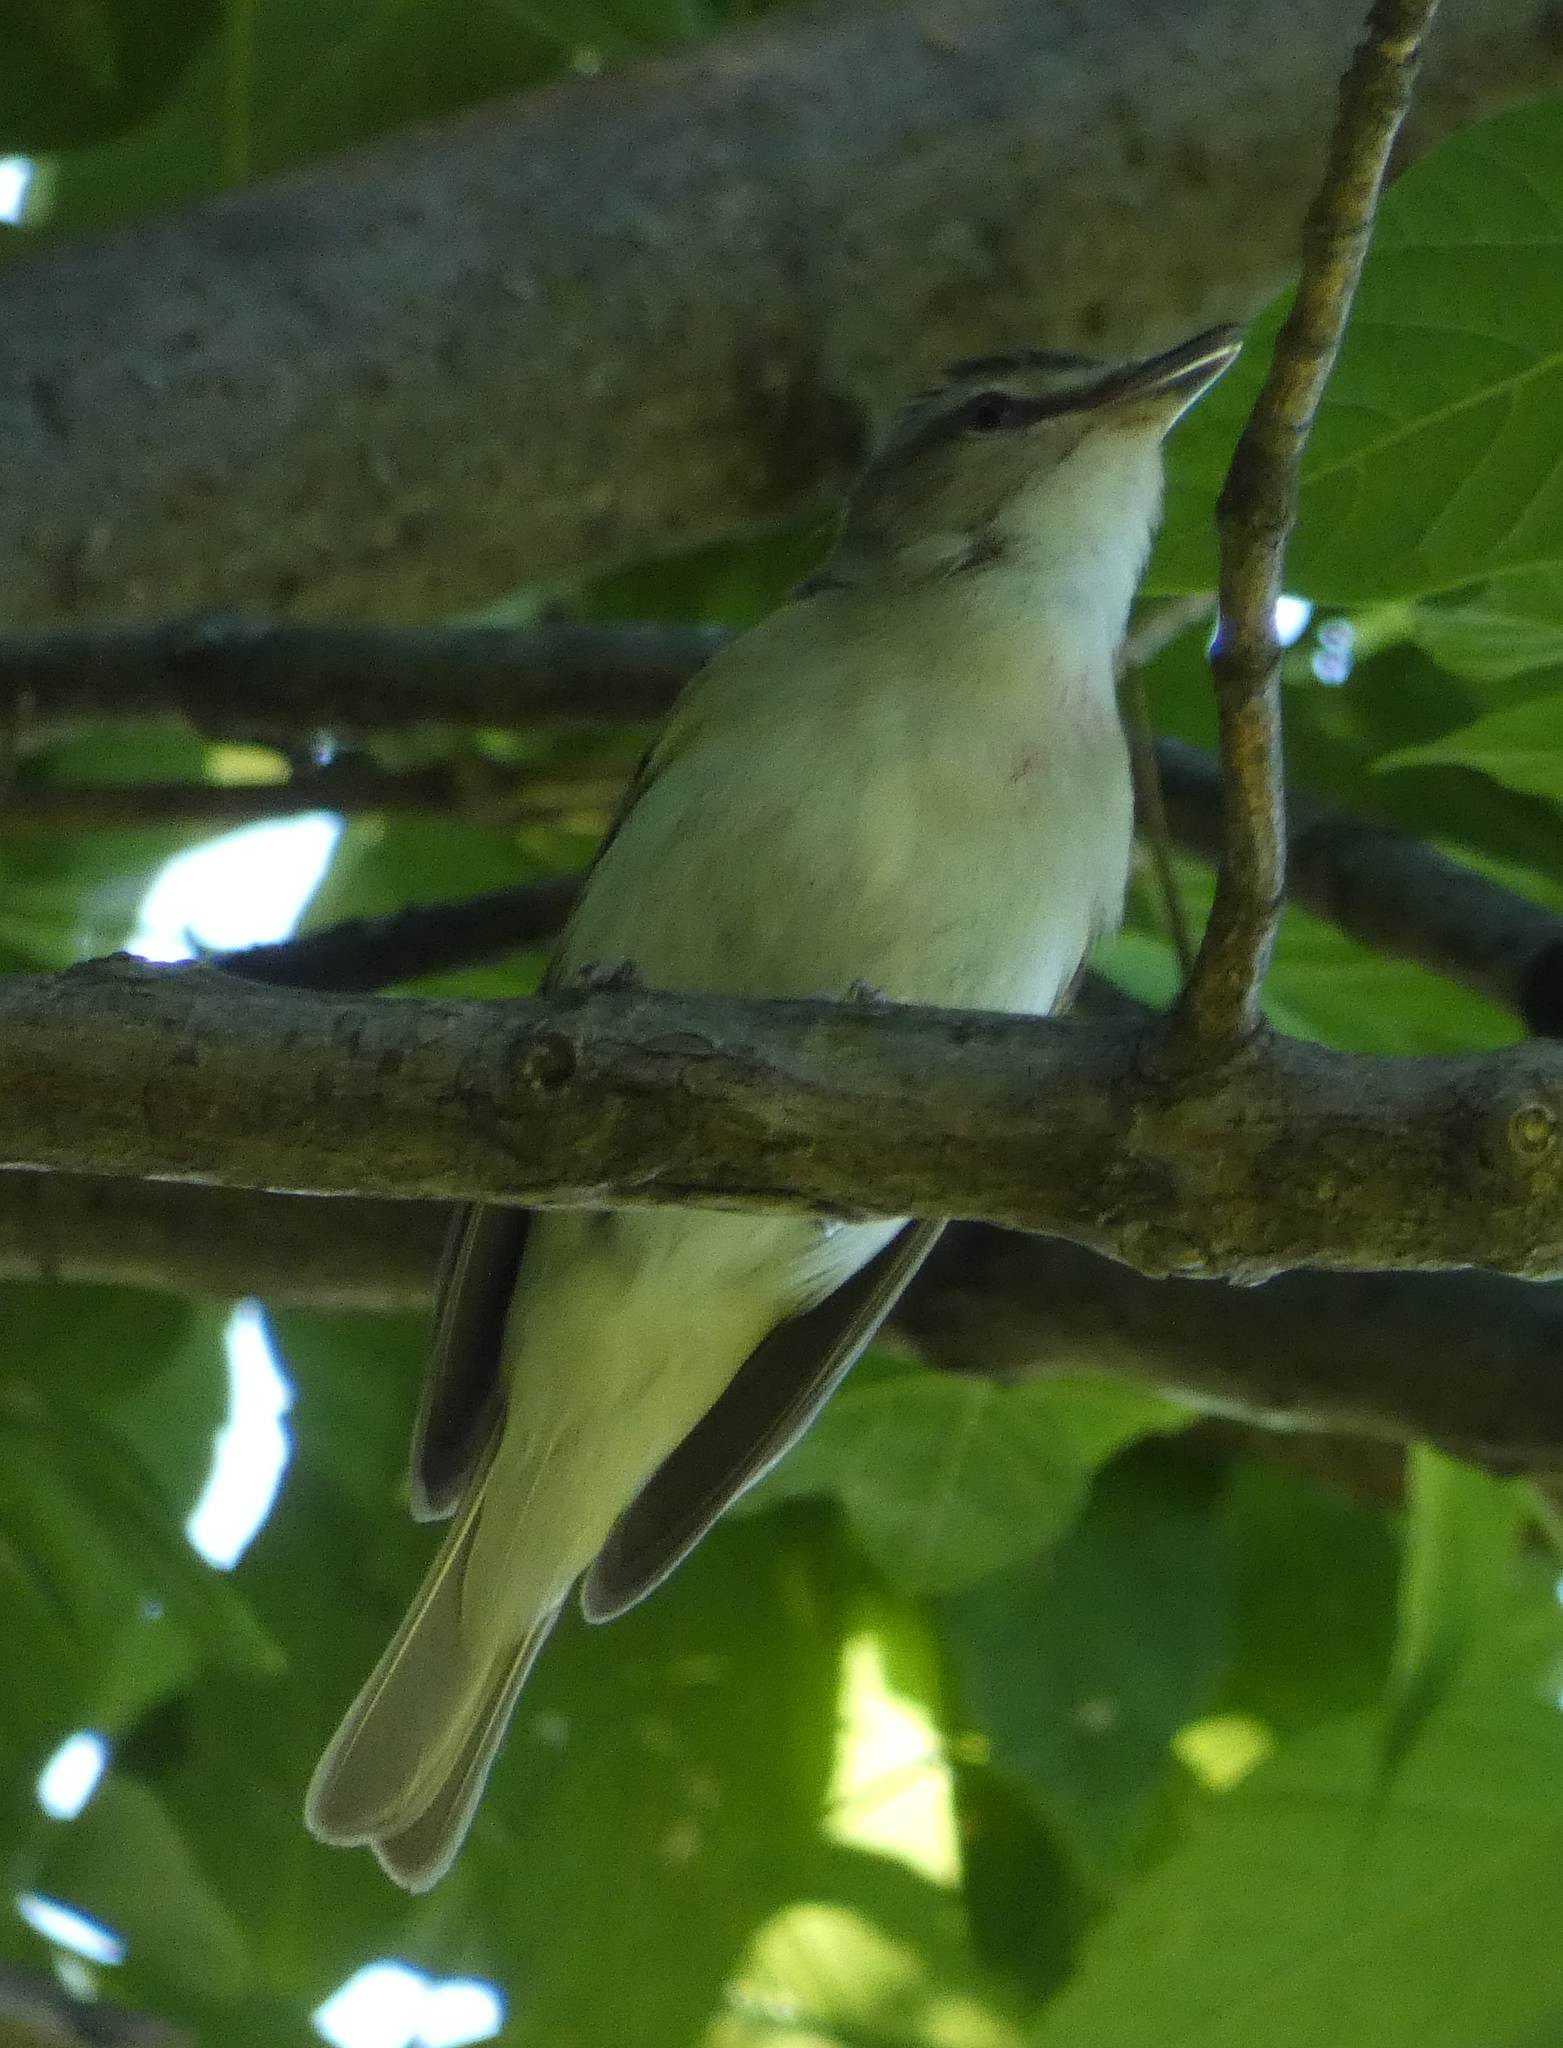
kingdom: Animalia
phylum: Chordata
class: Aves
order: Passeriformes
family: Vireonidae
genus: Vireo
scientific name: Vireo olivaceus
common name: Red-eyed vireo
